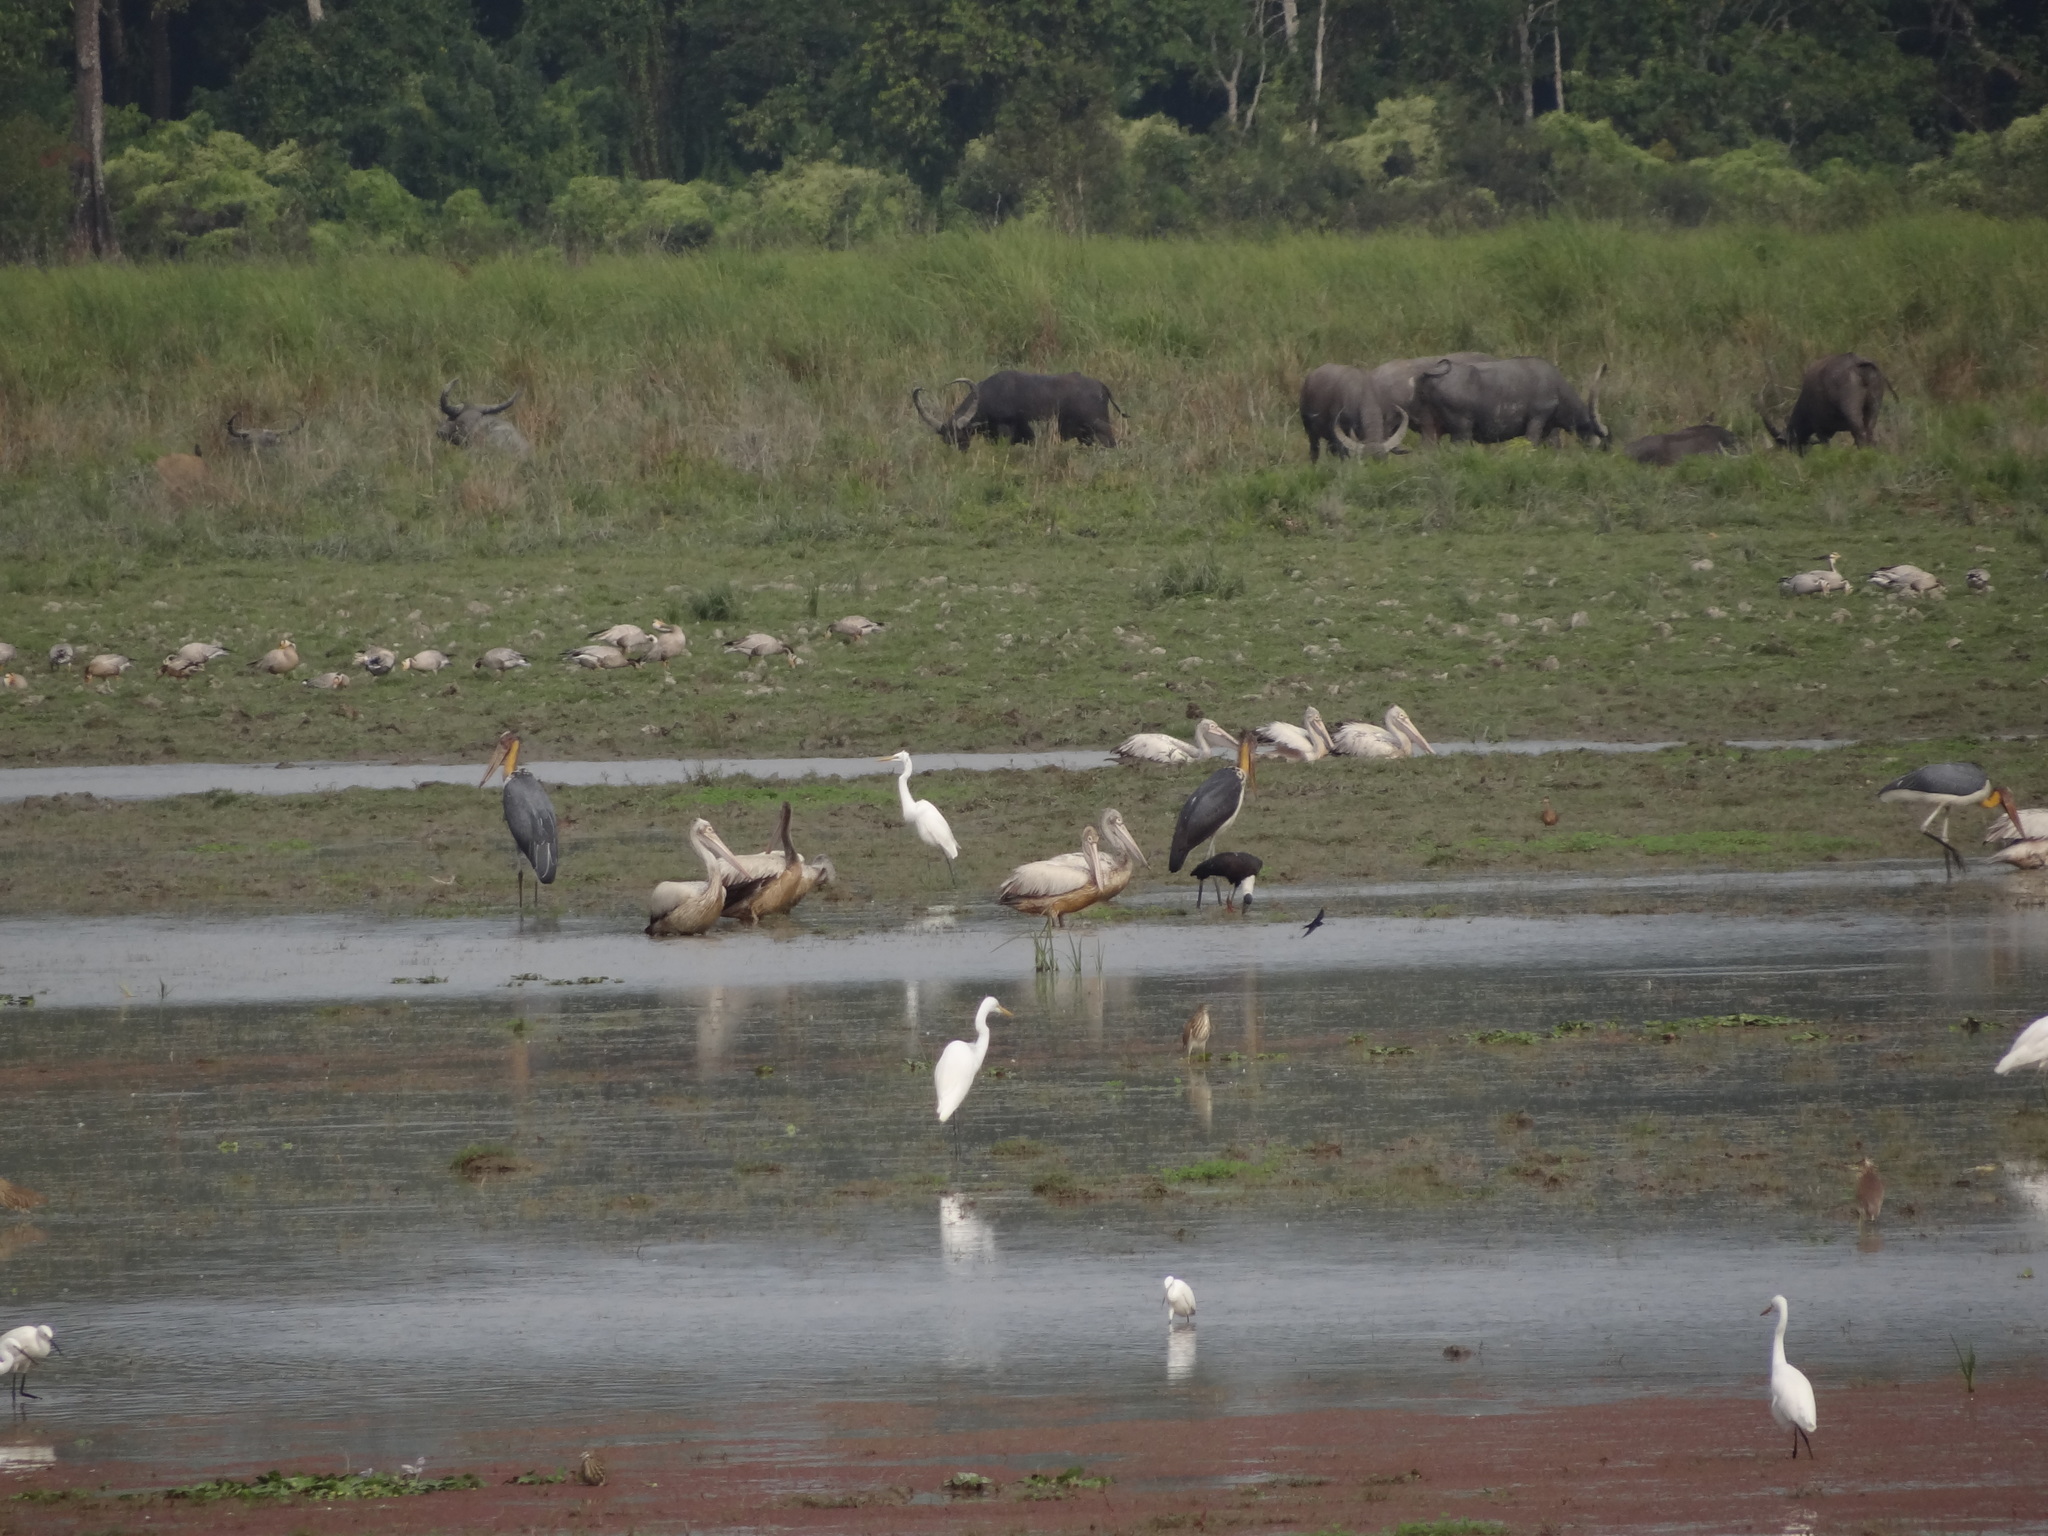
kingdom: Animalia
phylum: Chordata
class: Aves
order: Pelecaniformes
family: Pelecanidae
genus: Pelecanus
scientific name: Pelecanus philippensis
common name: Spot-billed pelican
